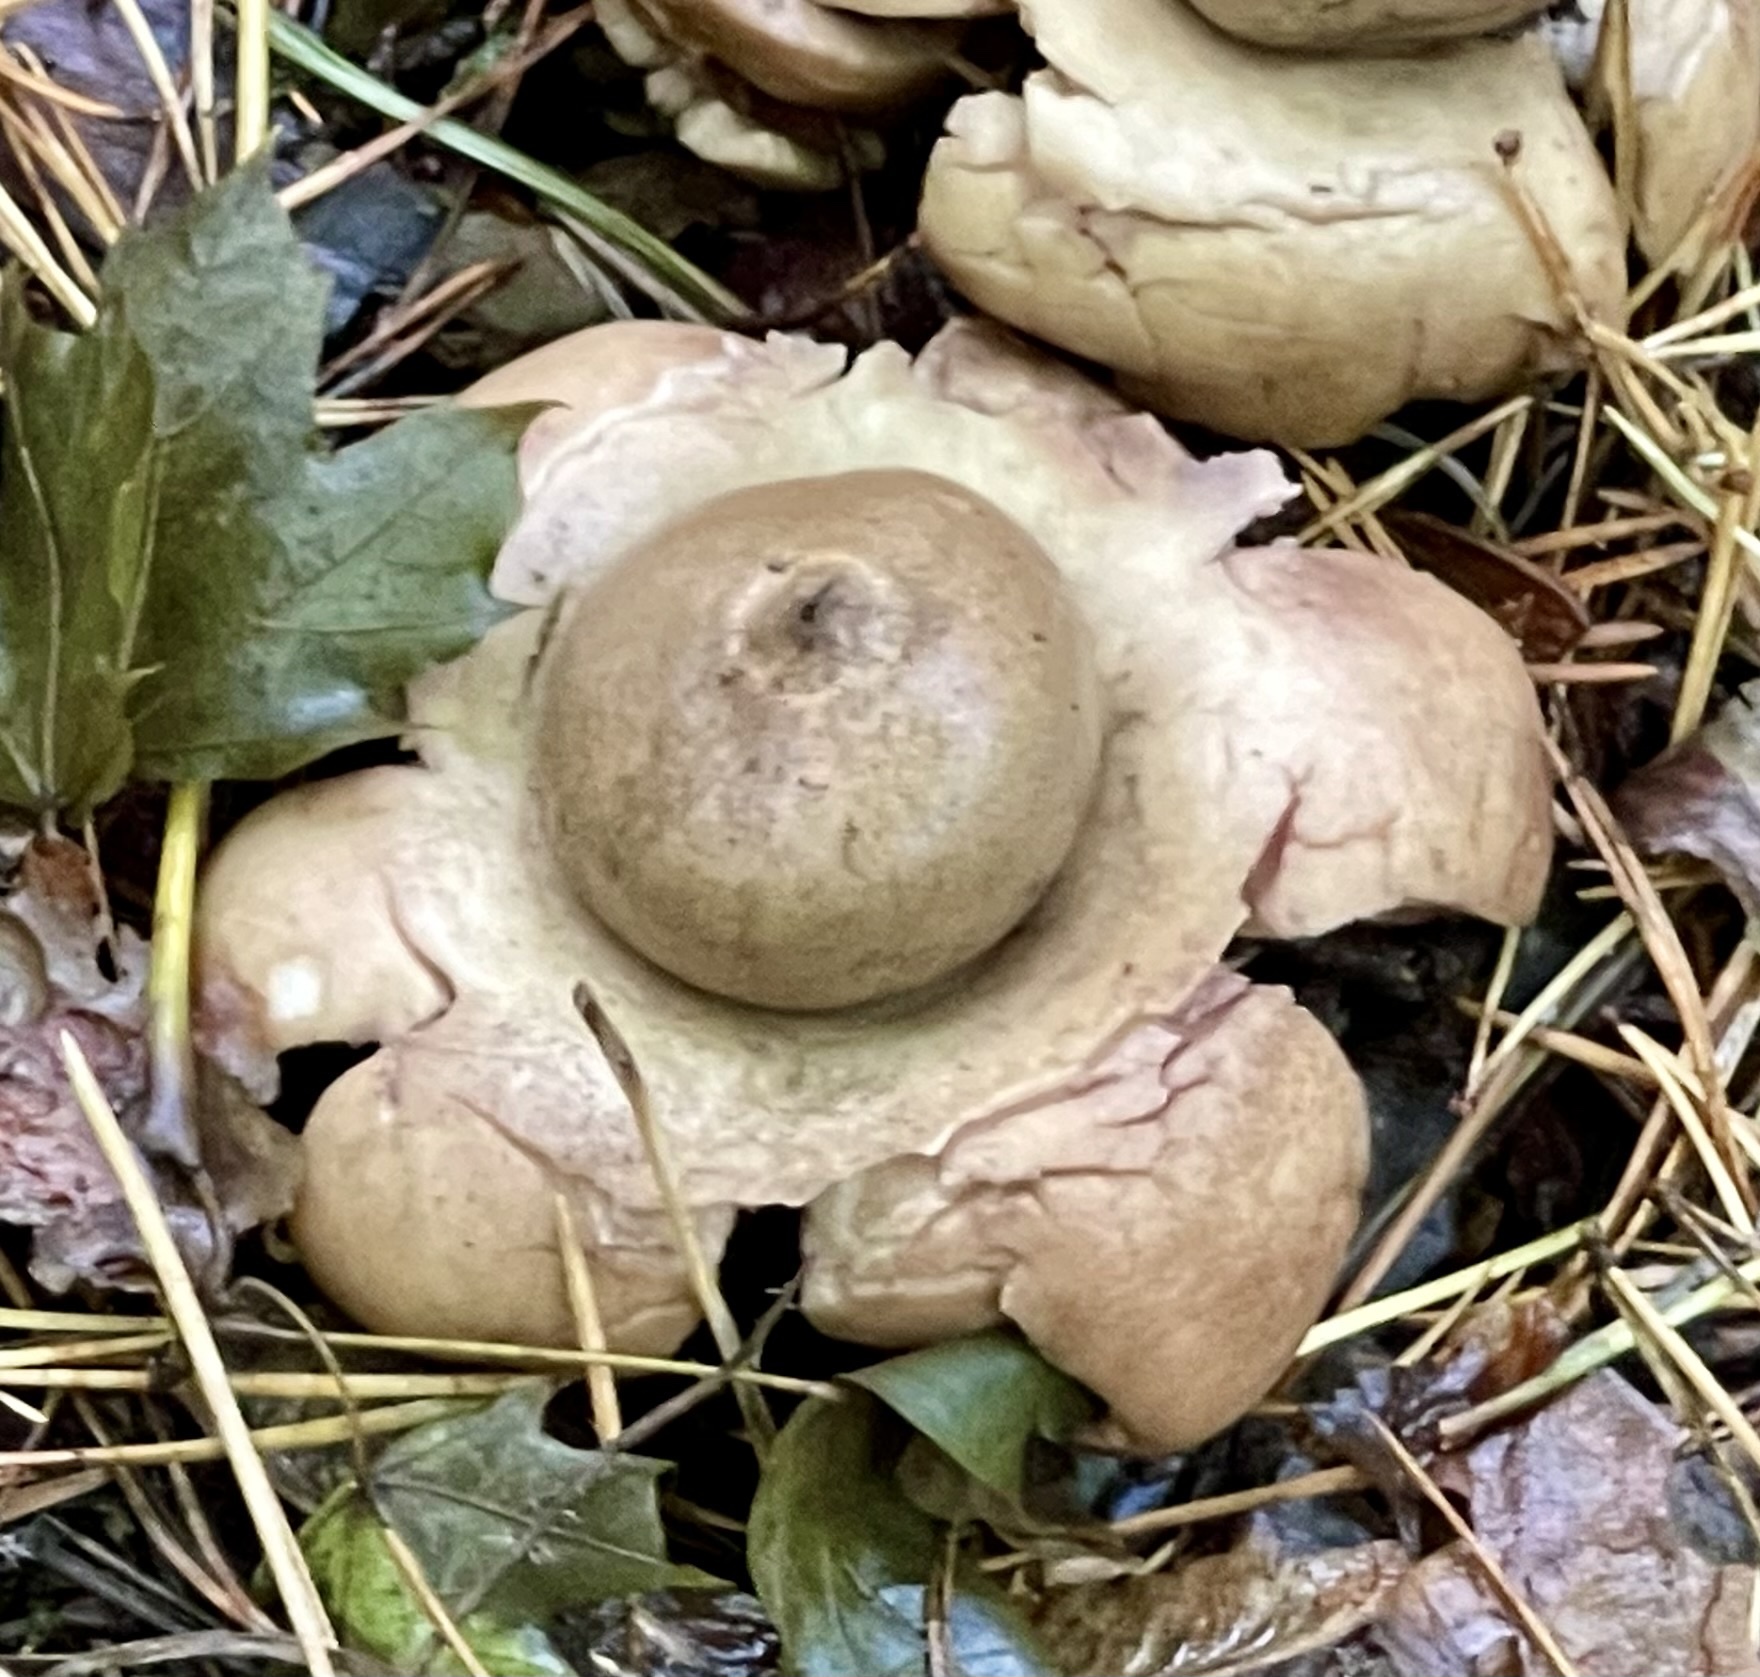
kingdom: Fungi
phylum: Basidiomycota
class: Agaricomycetes
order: Geastrales
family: Geastraceae
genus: Geastrum
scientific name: Geastrum triplex
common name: Collared earthstar
